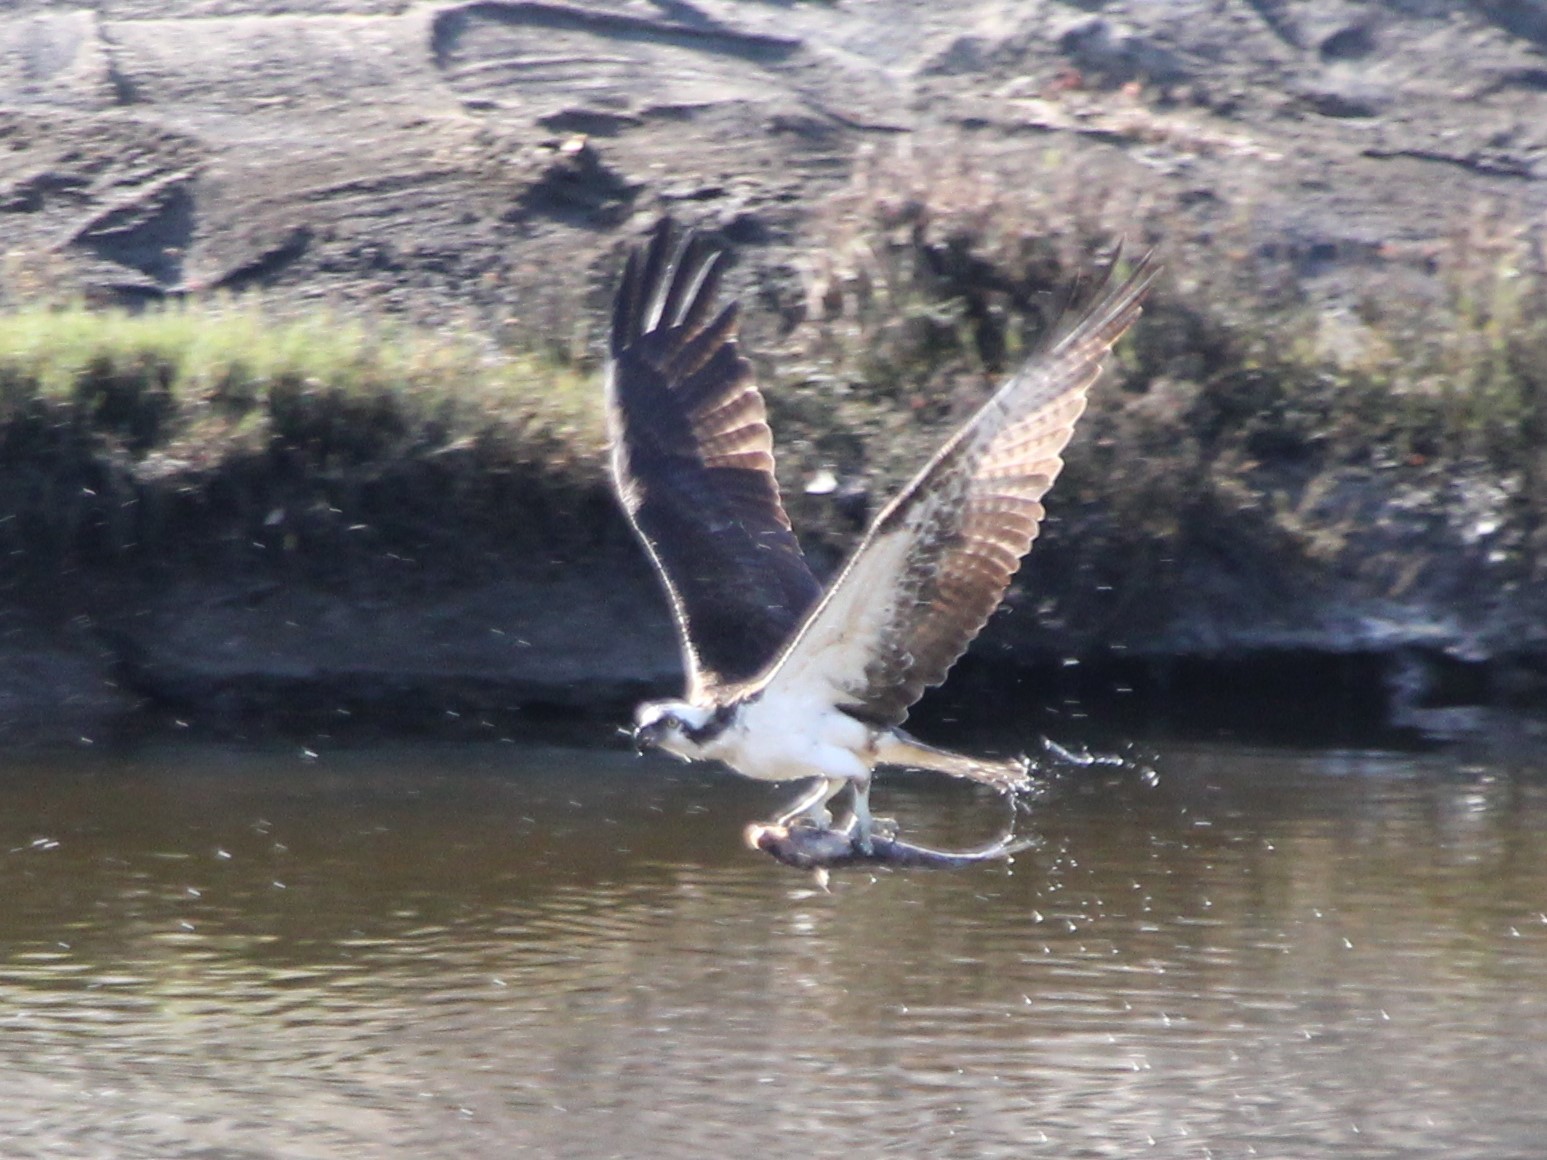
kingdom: Animalia
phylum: Chordata
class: Aves
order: Accipitriformes
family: Pandionidae
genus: Pandion
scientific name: Pandion haliaetus
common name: Osprey
